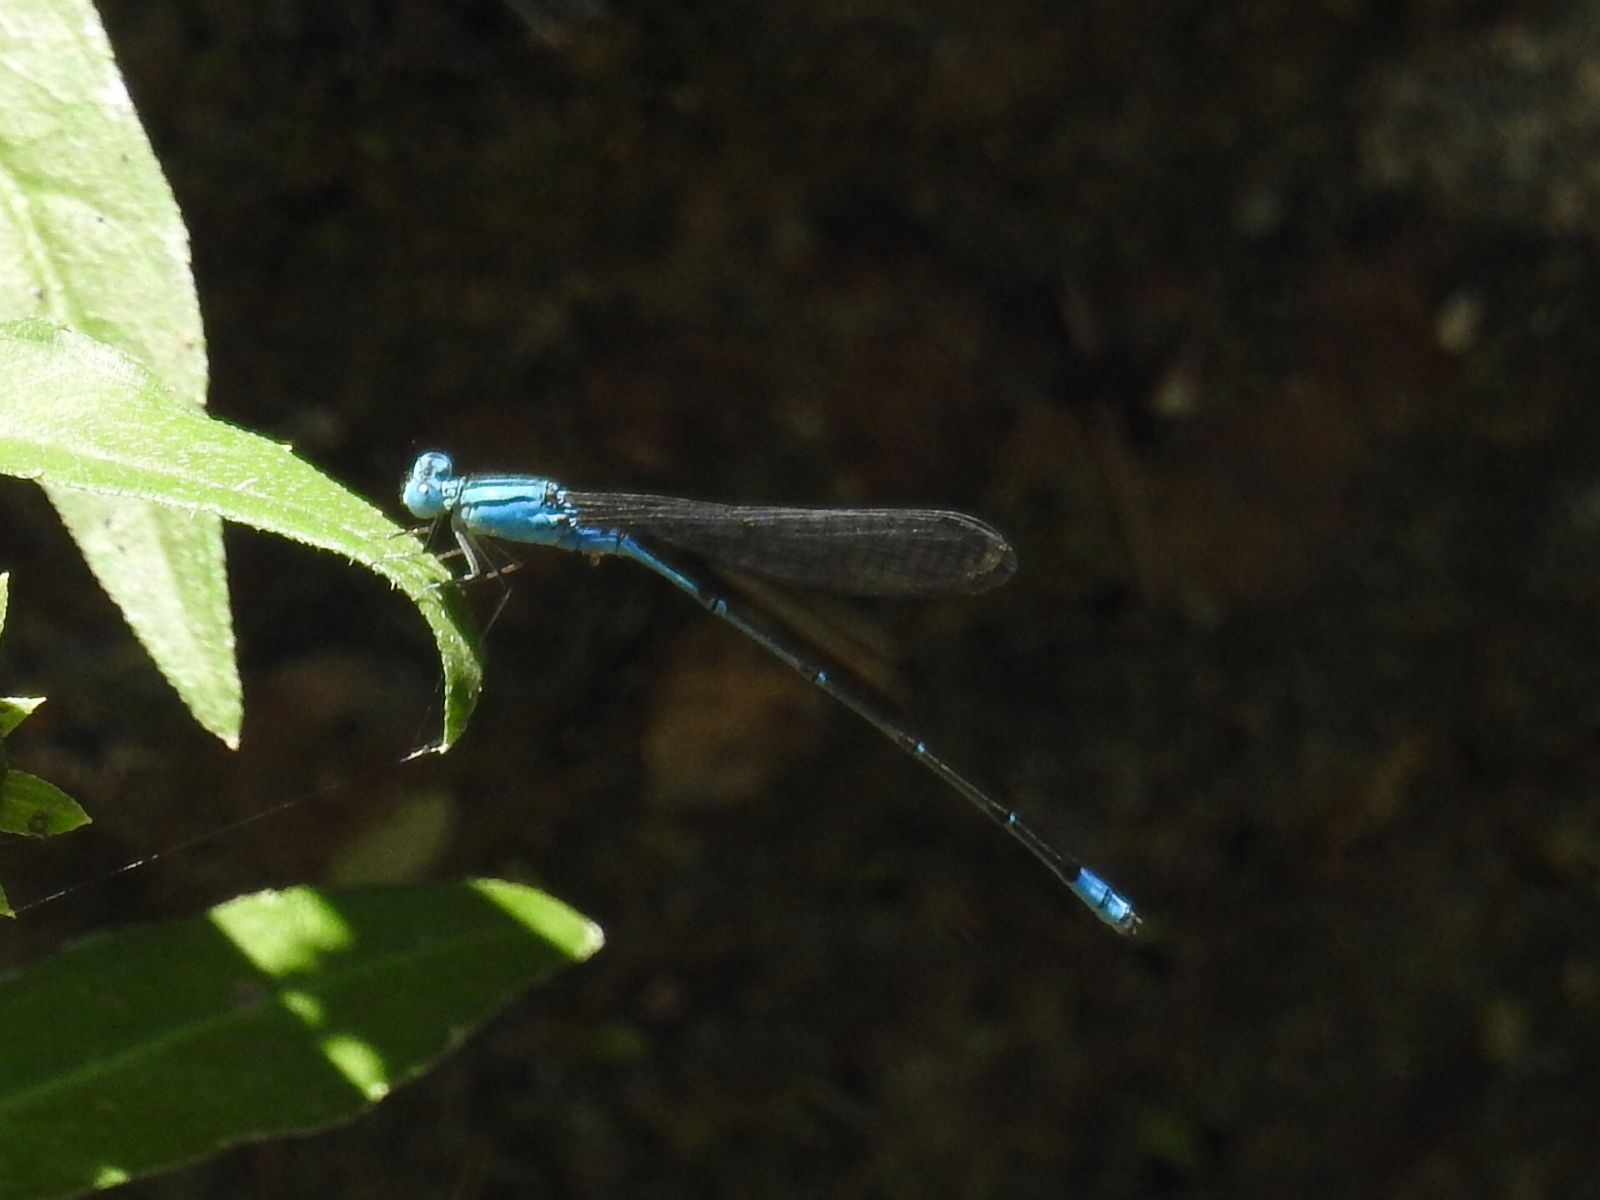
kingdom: Animalia
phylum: Arthropoda
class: Insecta
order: Odonata
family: Coenagrionidae
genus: Pseudagrion
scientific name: Pseudagrion microcephalum
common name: Blue riverdamsel
